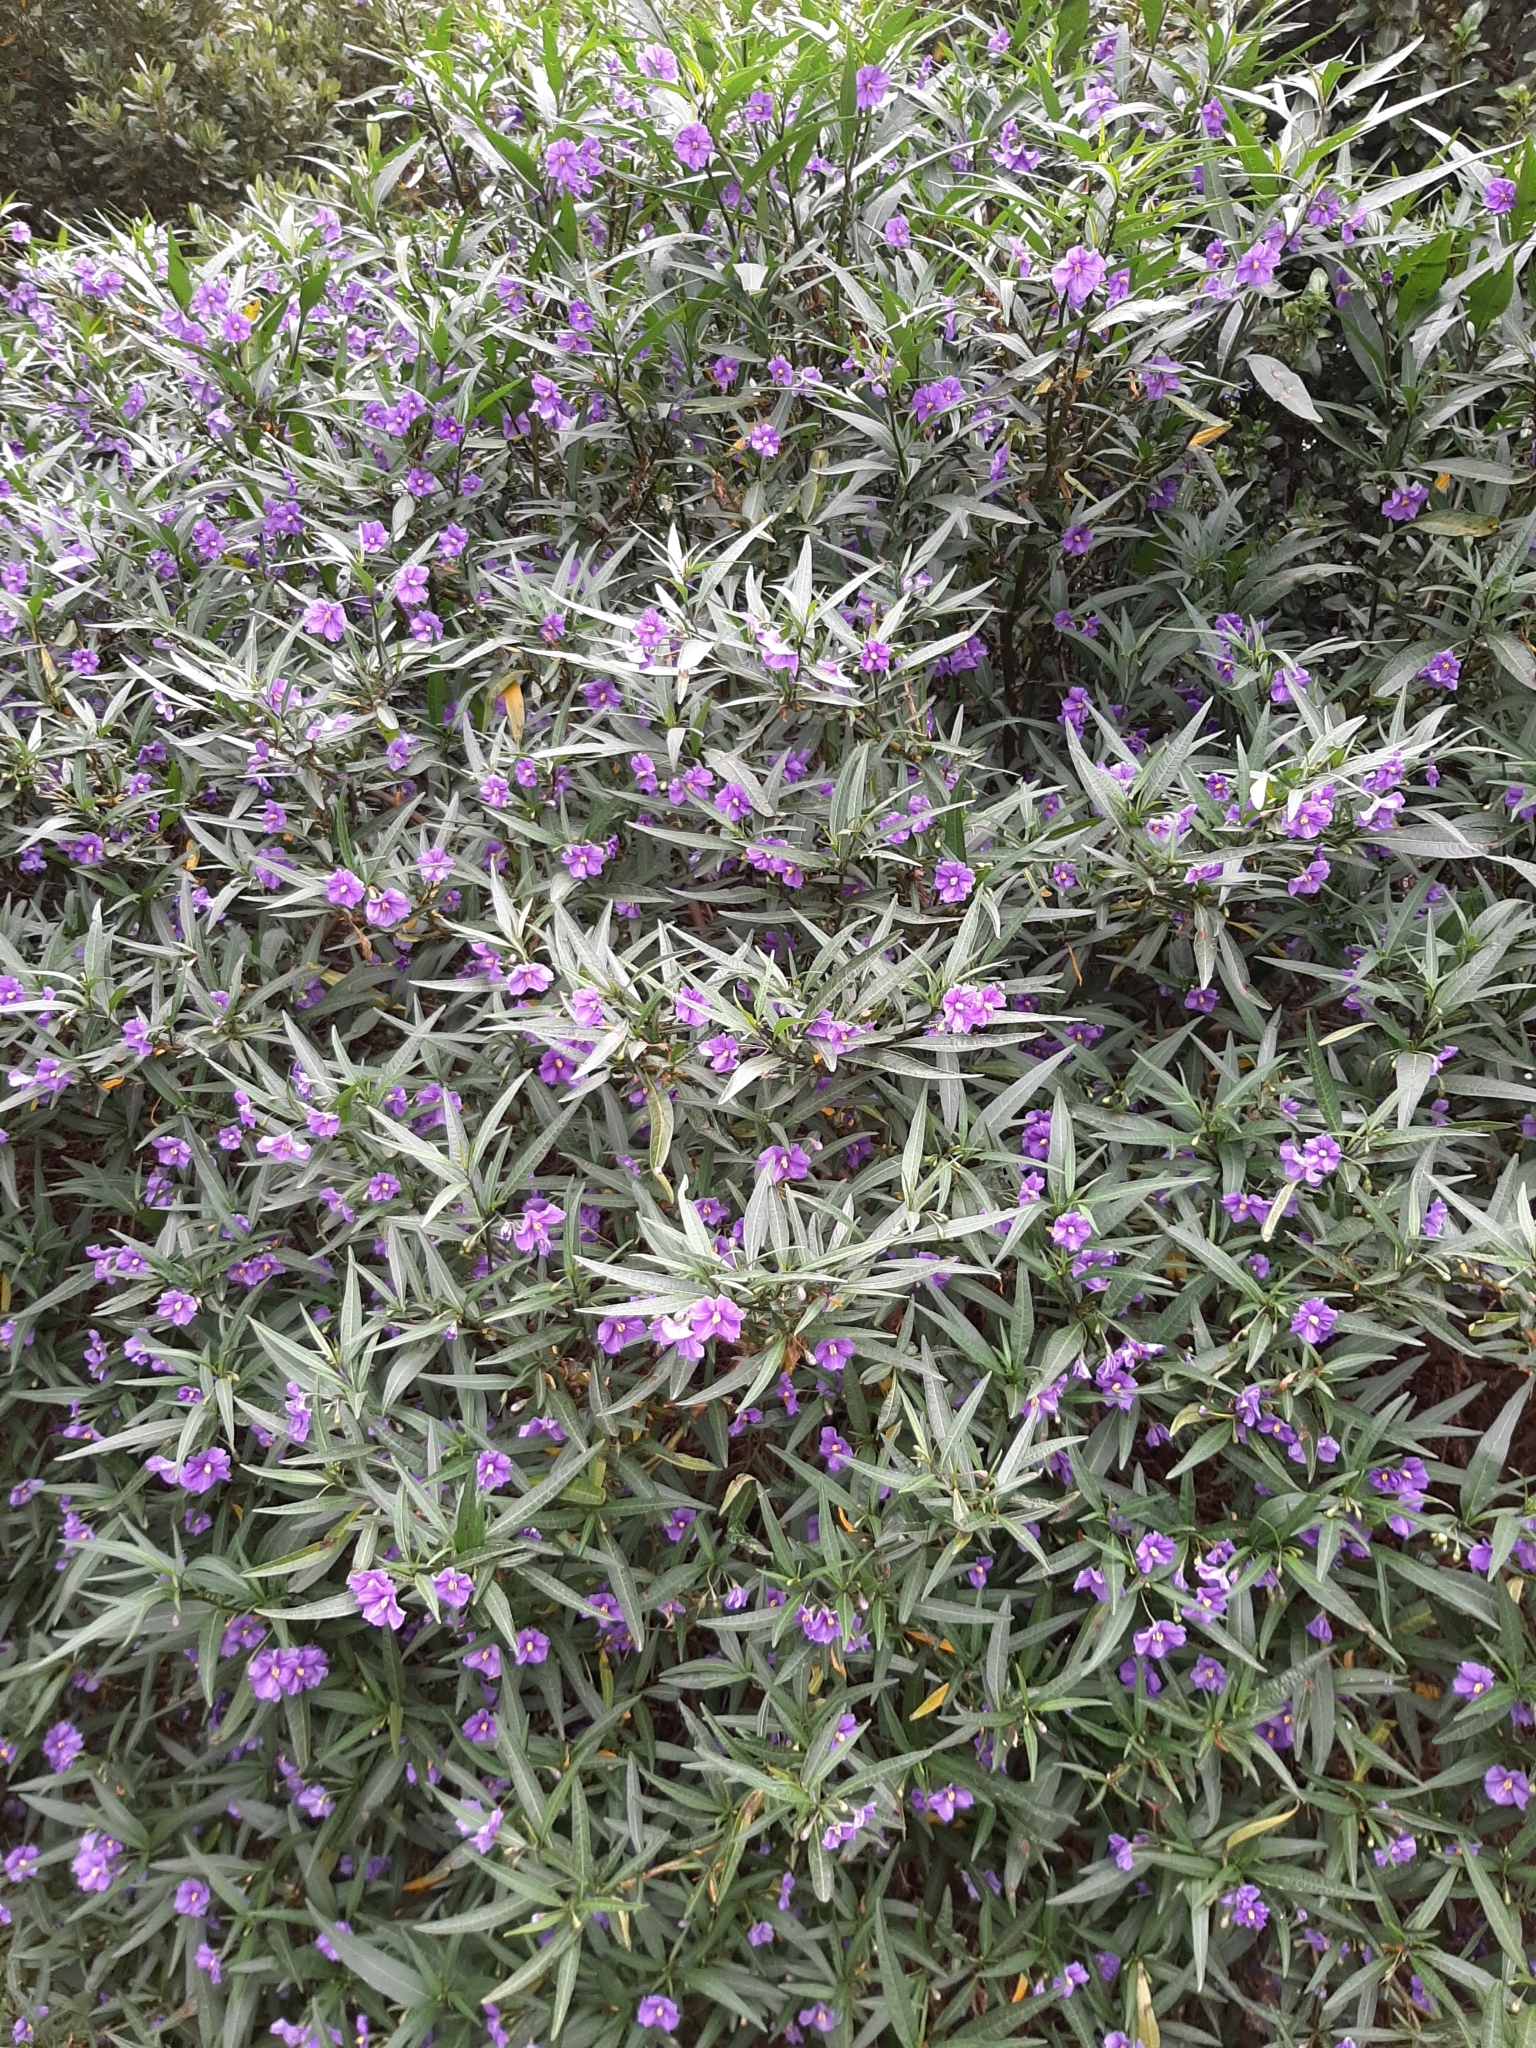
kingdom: Plantae
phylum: Tracheophyta
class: Magnoliopsida
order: Solanales
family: Solanaceae
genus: Solanum
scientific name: Solanum laciniatum
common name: Kangaroo-apple
